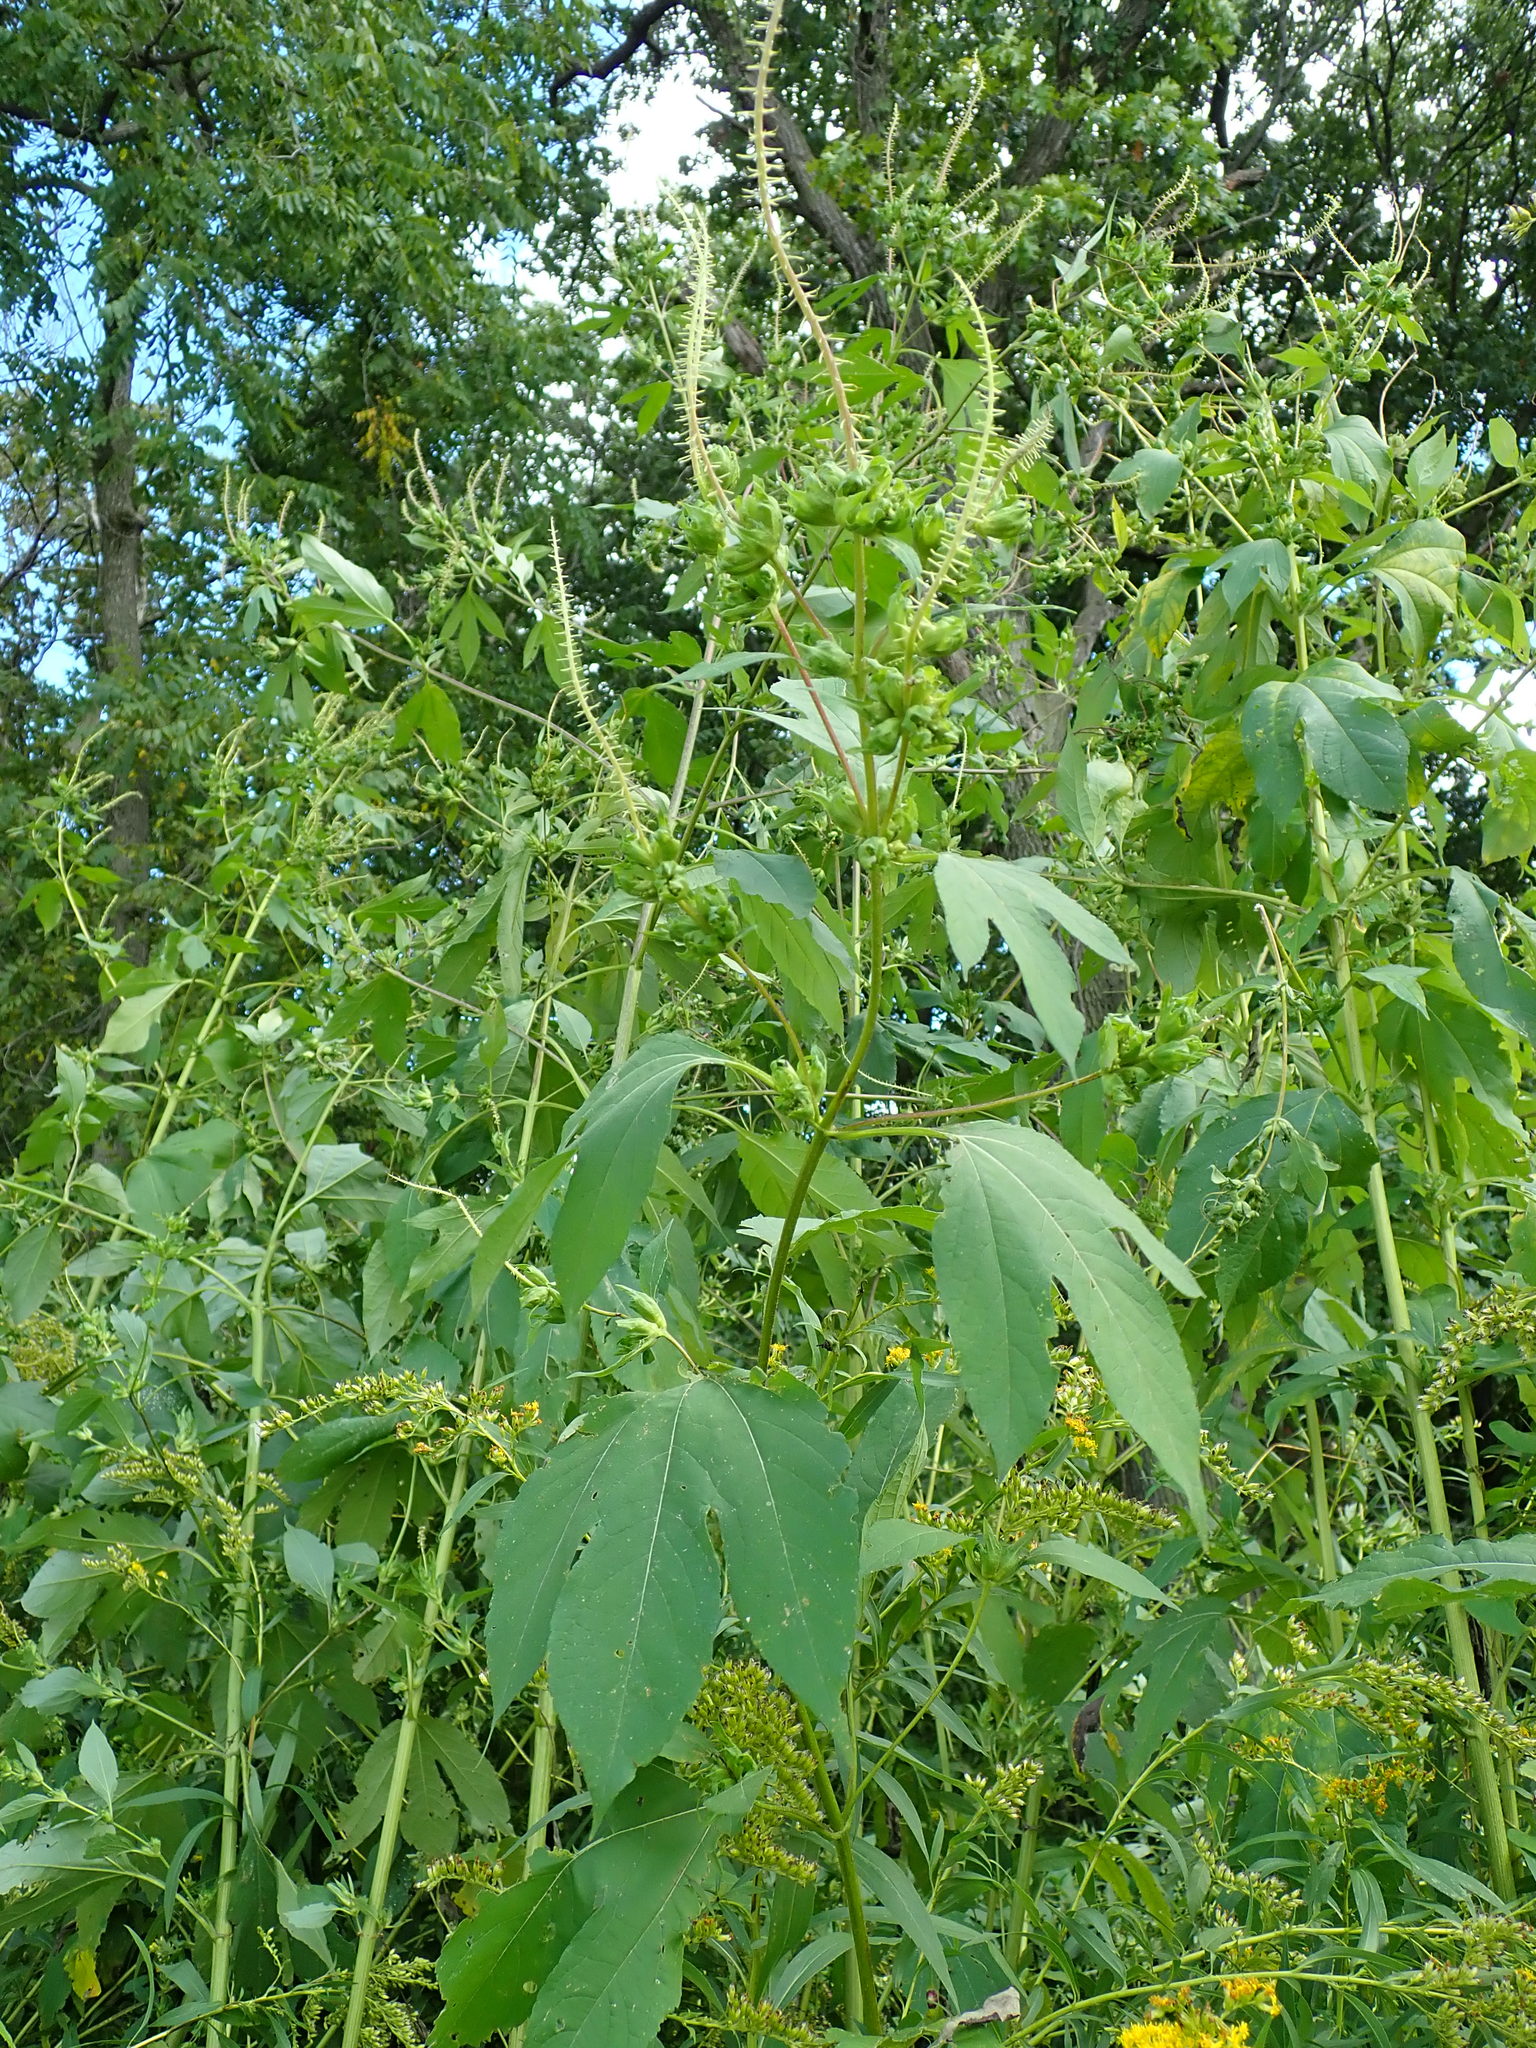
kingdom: Plantae
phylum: Tracheophyta
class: Magnoliopsida
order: Asterales
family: Asteraceae
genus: Ambrosia
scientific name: Ambrosia trifida
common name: Giant ragweed
